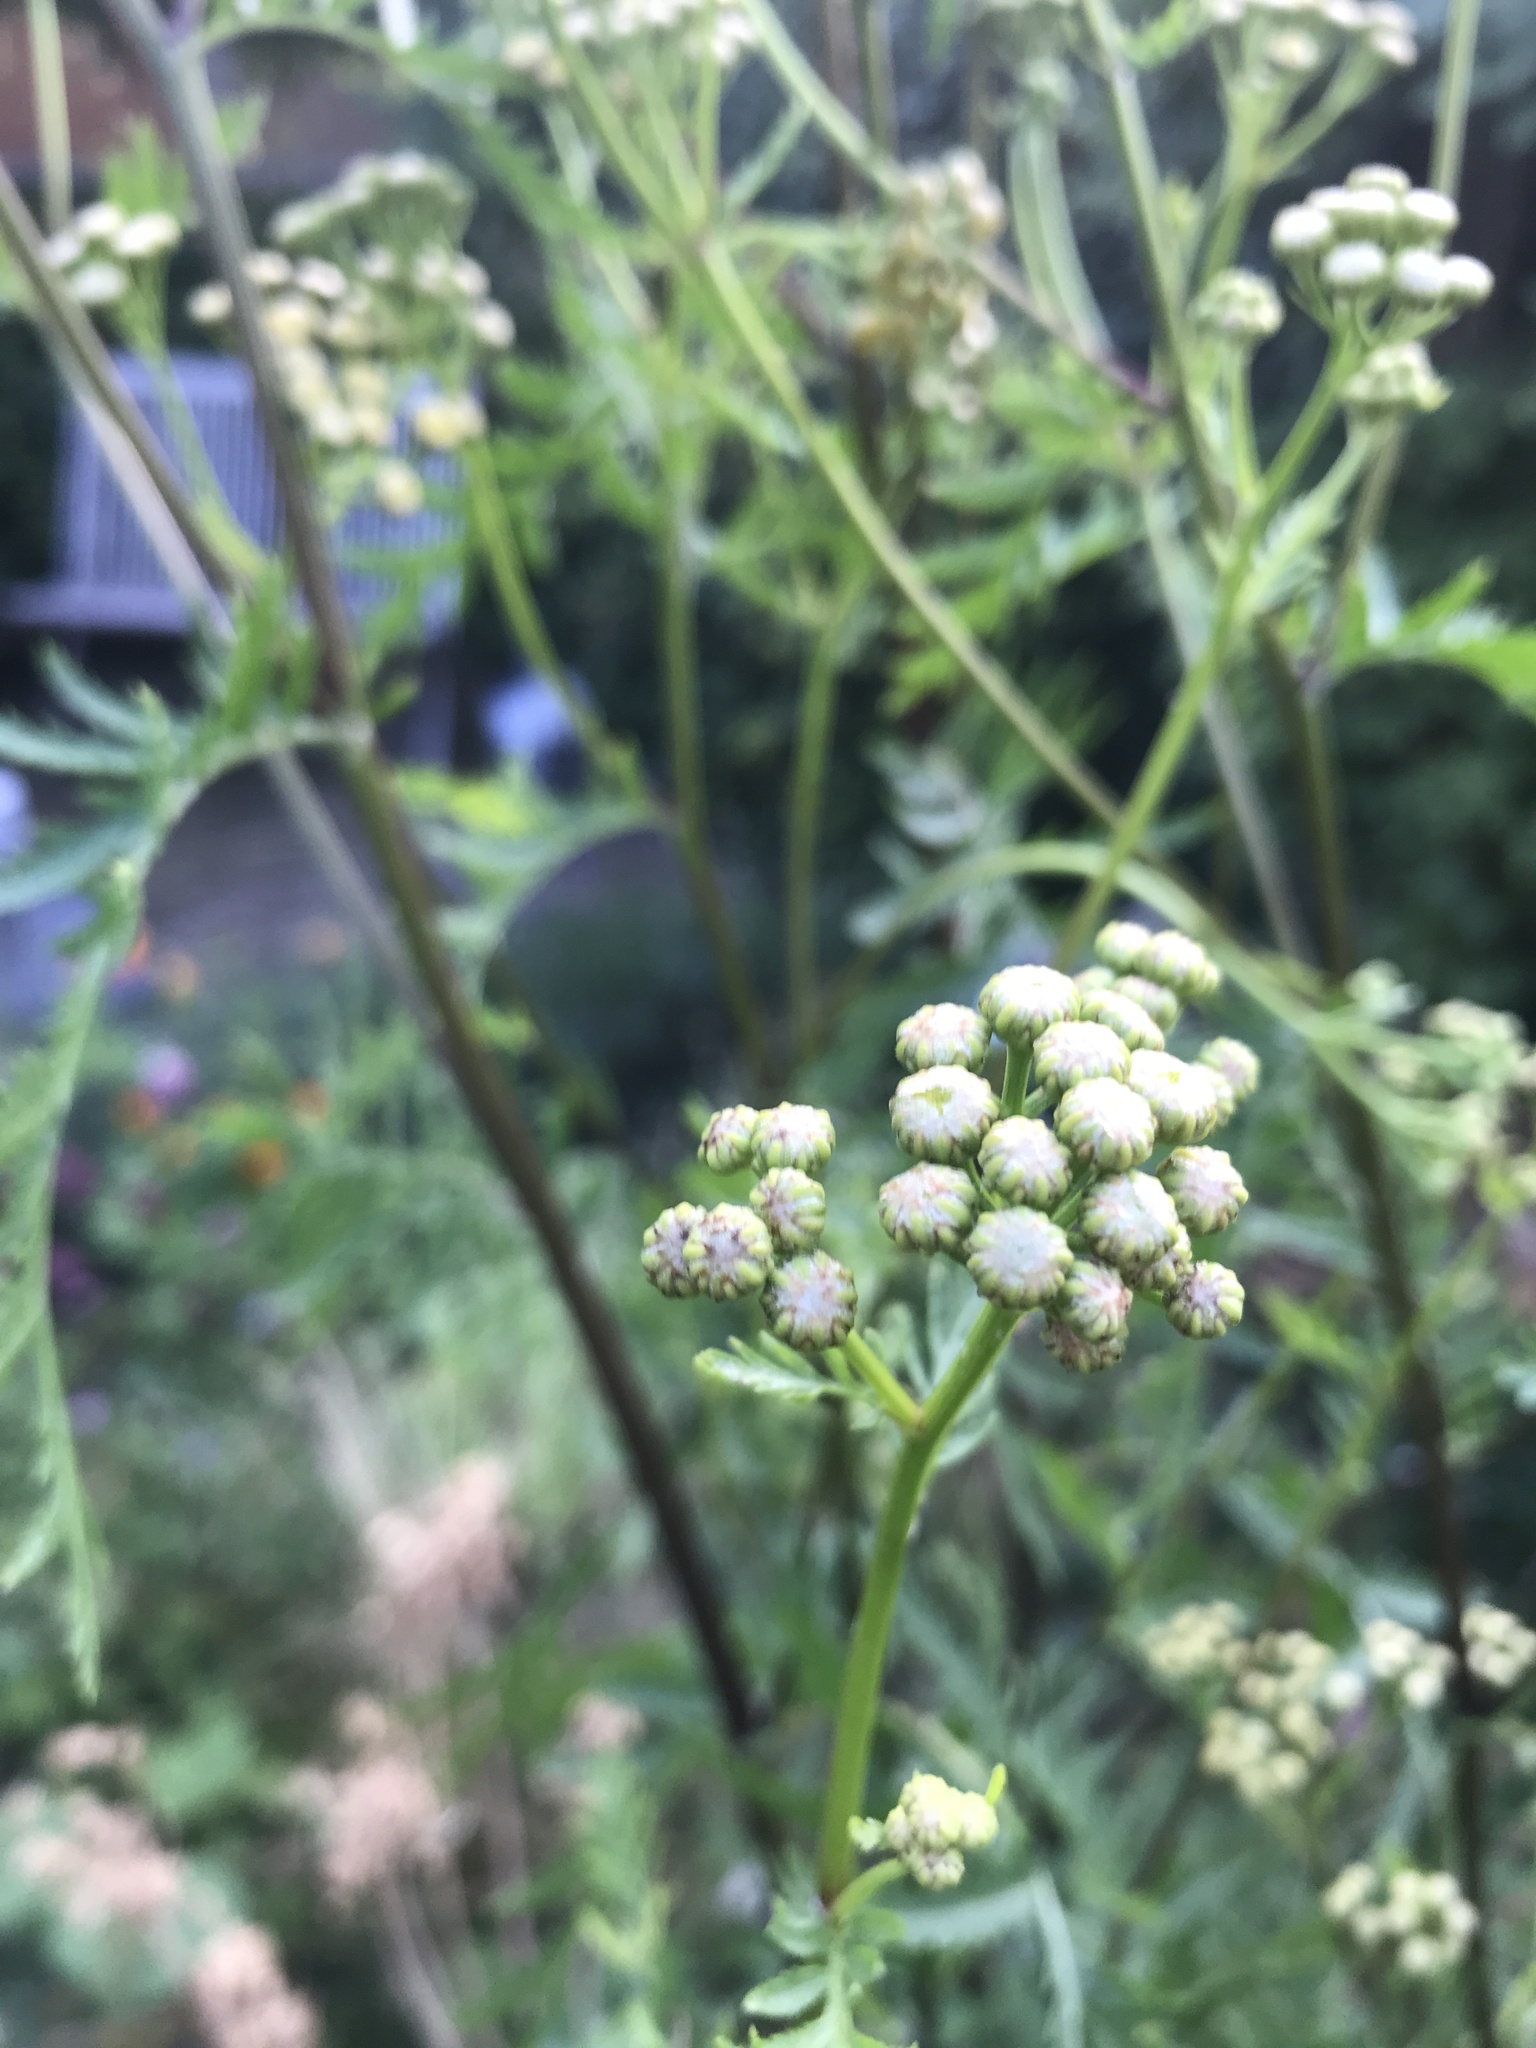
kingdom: Plantae
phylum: Tracheophyta
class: Magnoliopsida
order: Asterales
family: Asteraceae
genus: Tanacetum
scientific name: Tanacetum vulgare
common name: Common tansy
